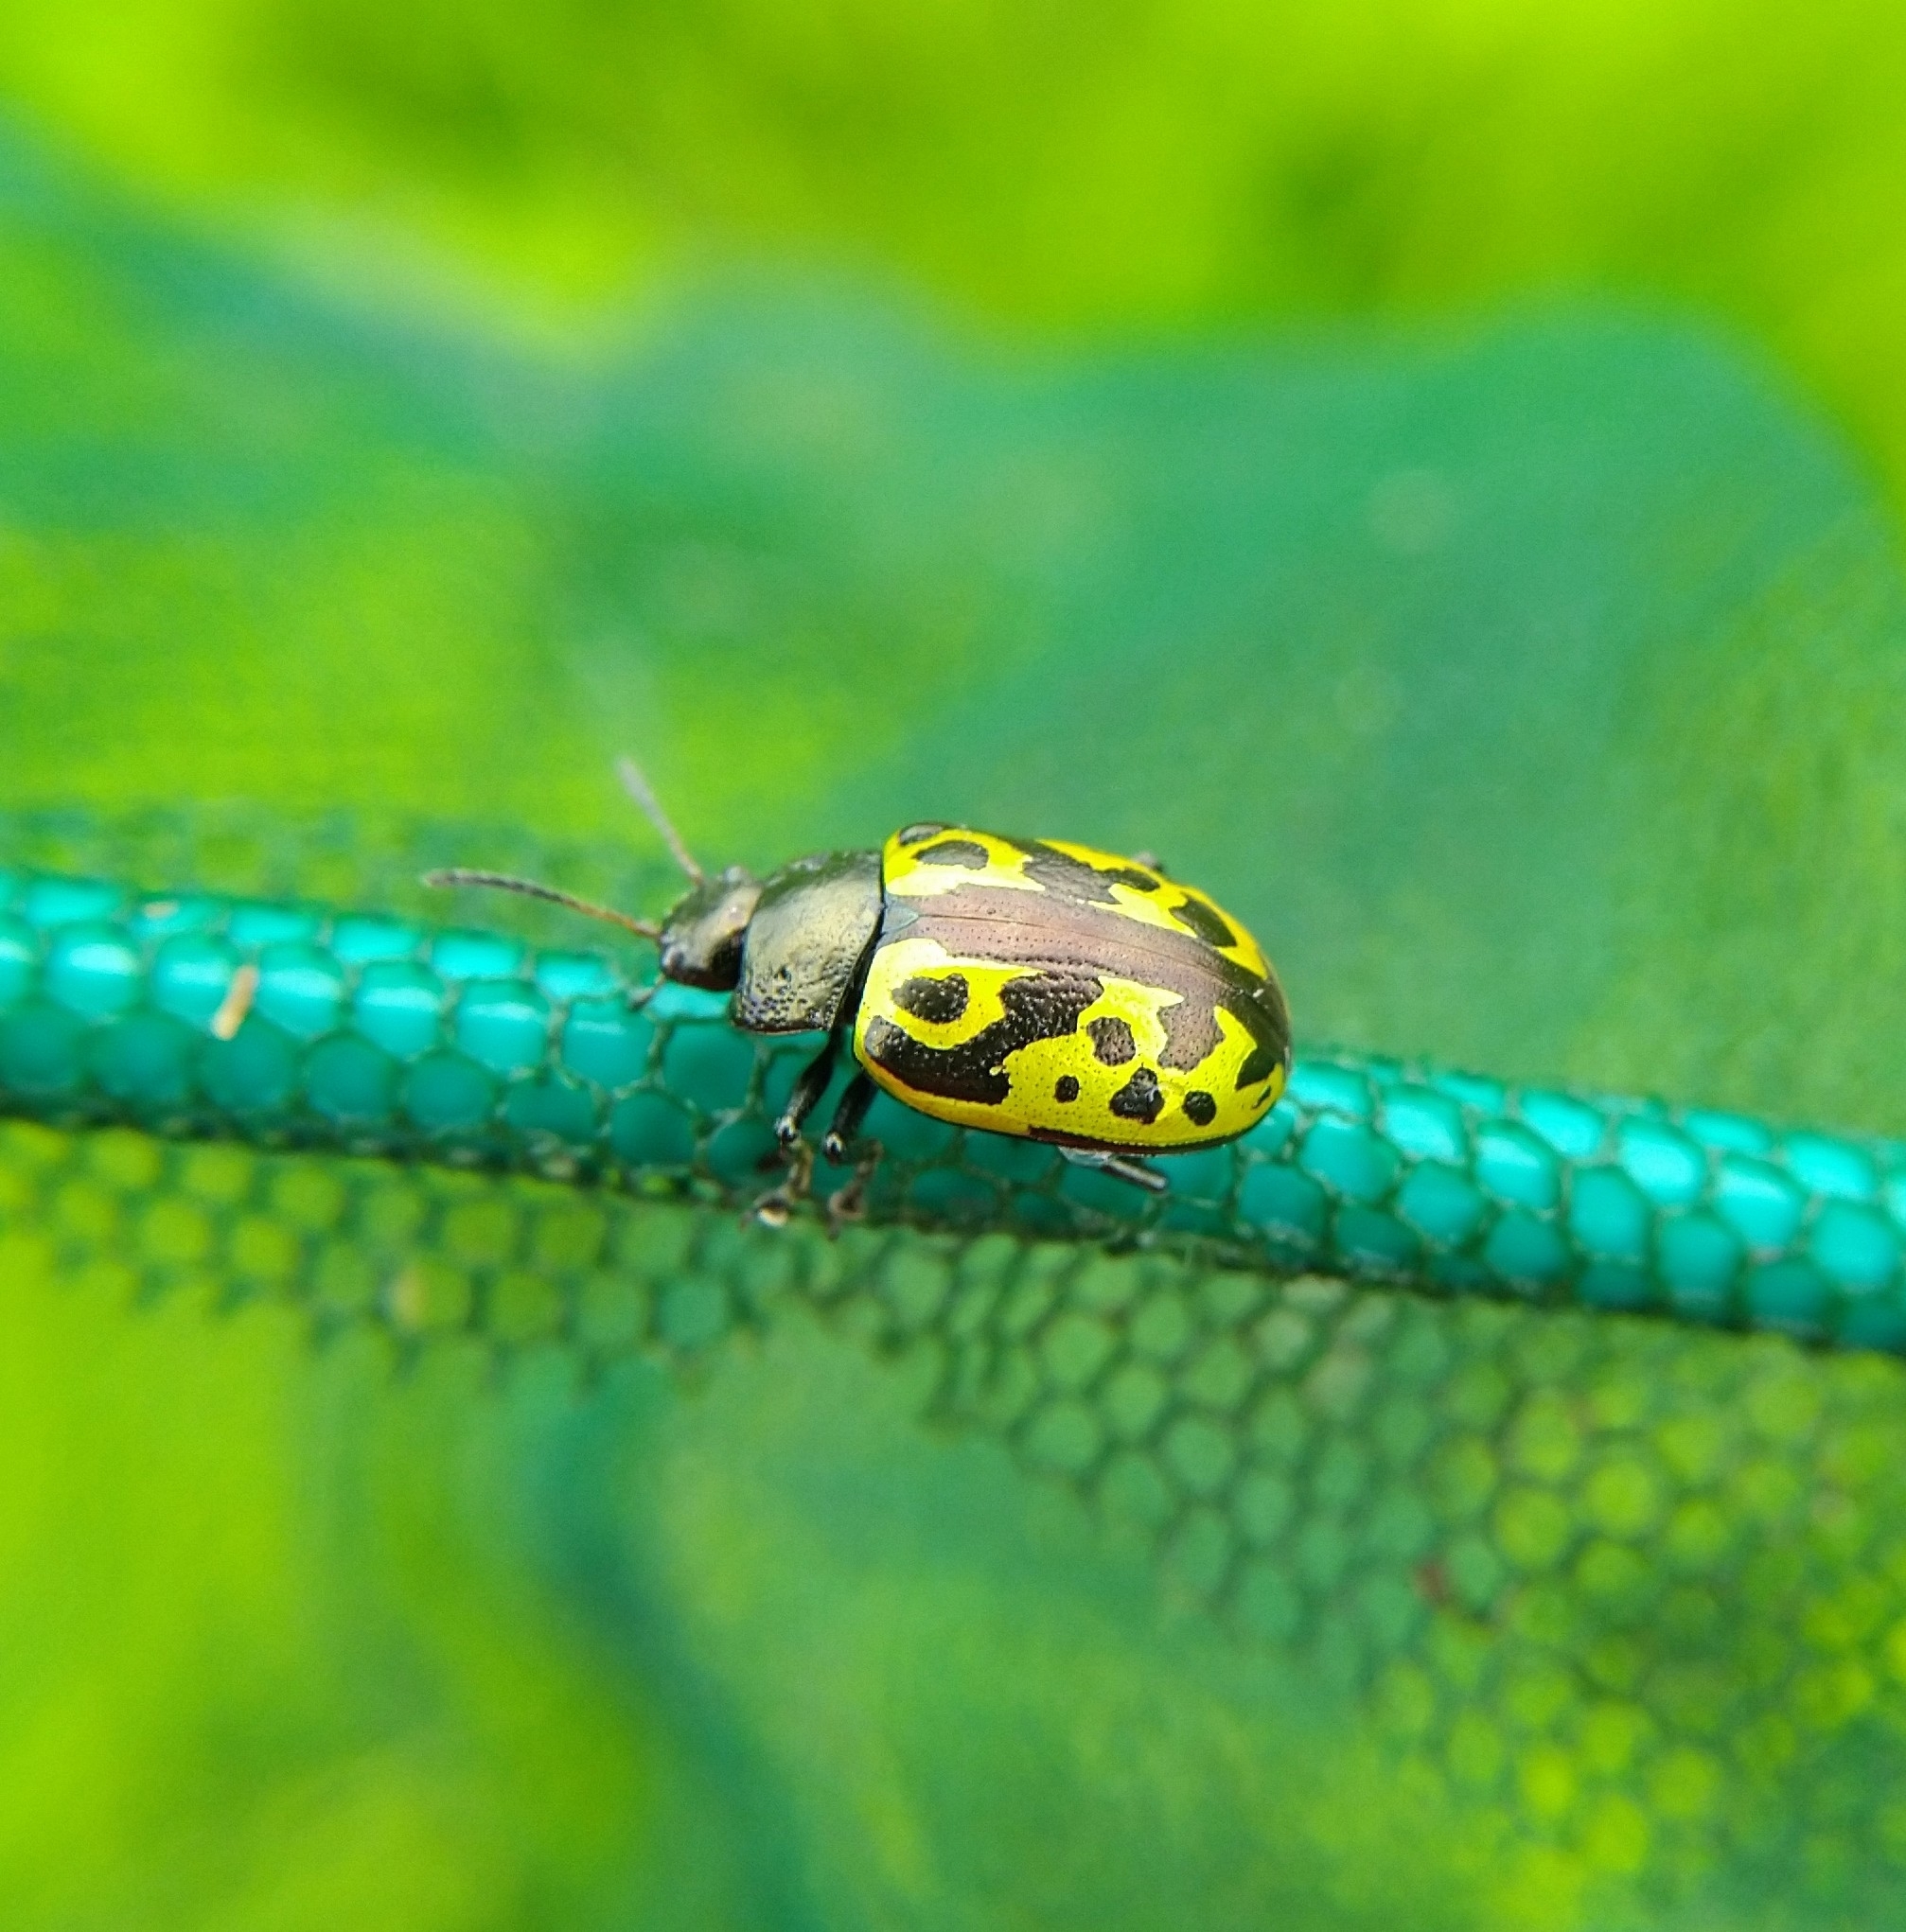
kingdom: Animalia
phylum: Arthropoda
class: Insecta
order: Coleoptera
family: Chrysomelidae
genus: Calligrapha
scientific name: Calligrapha
